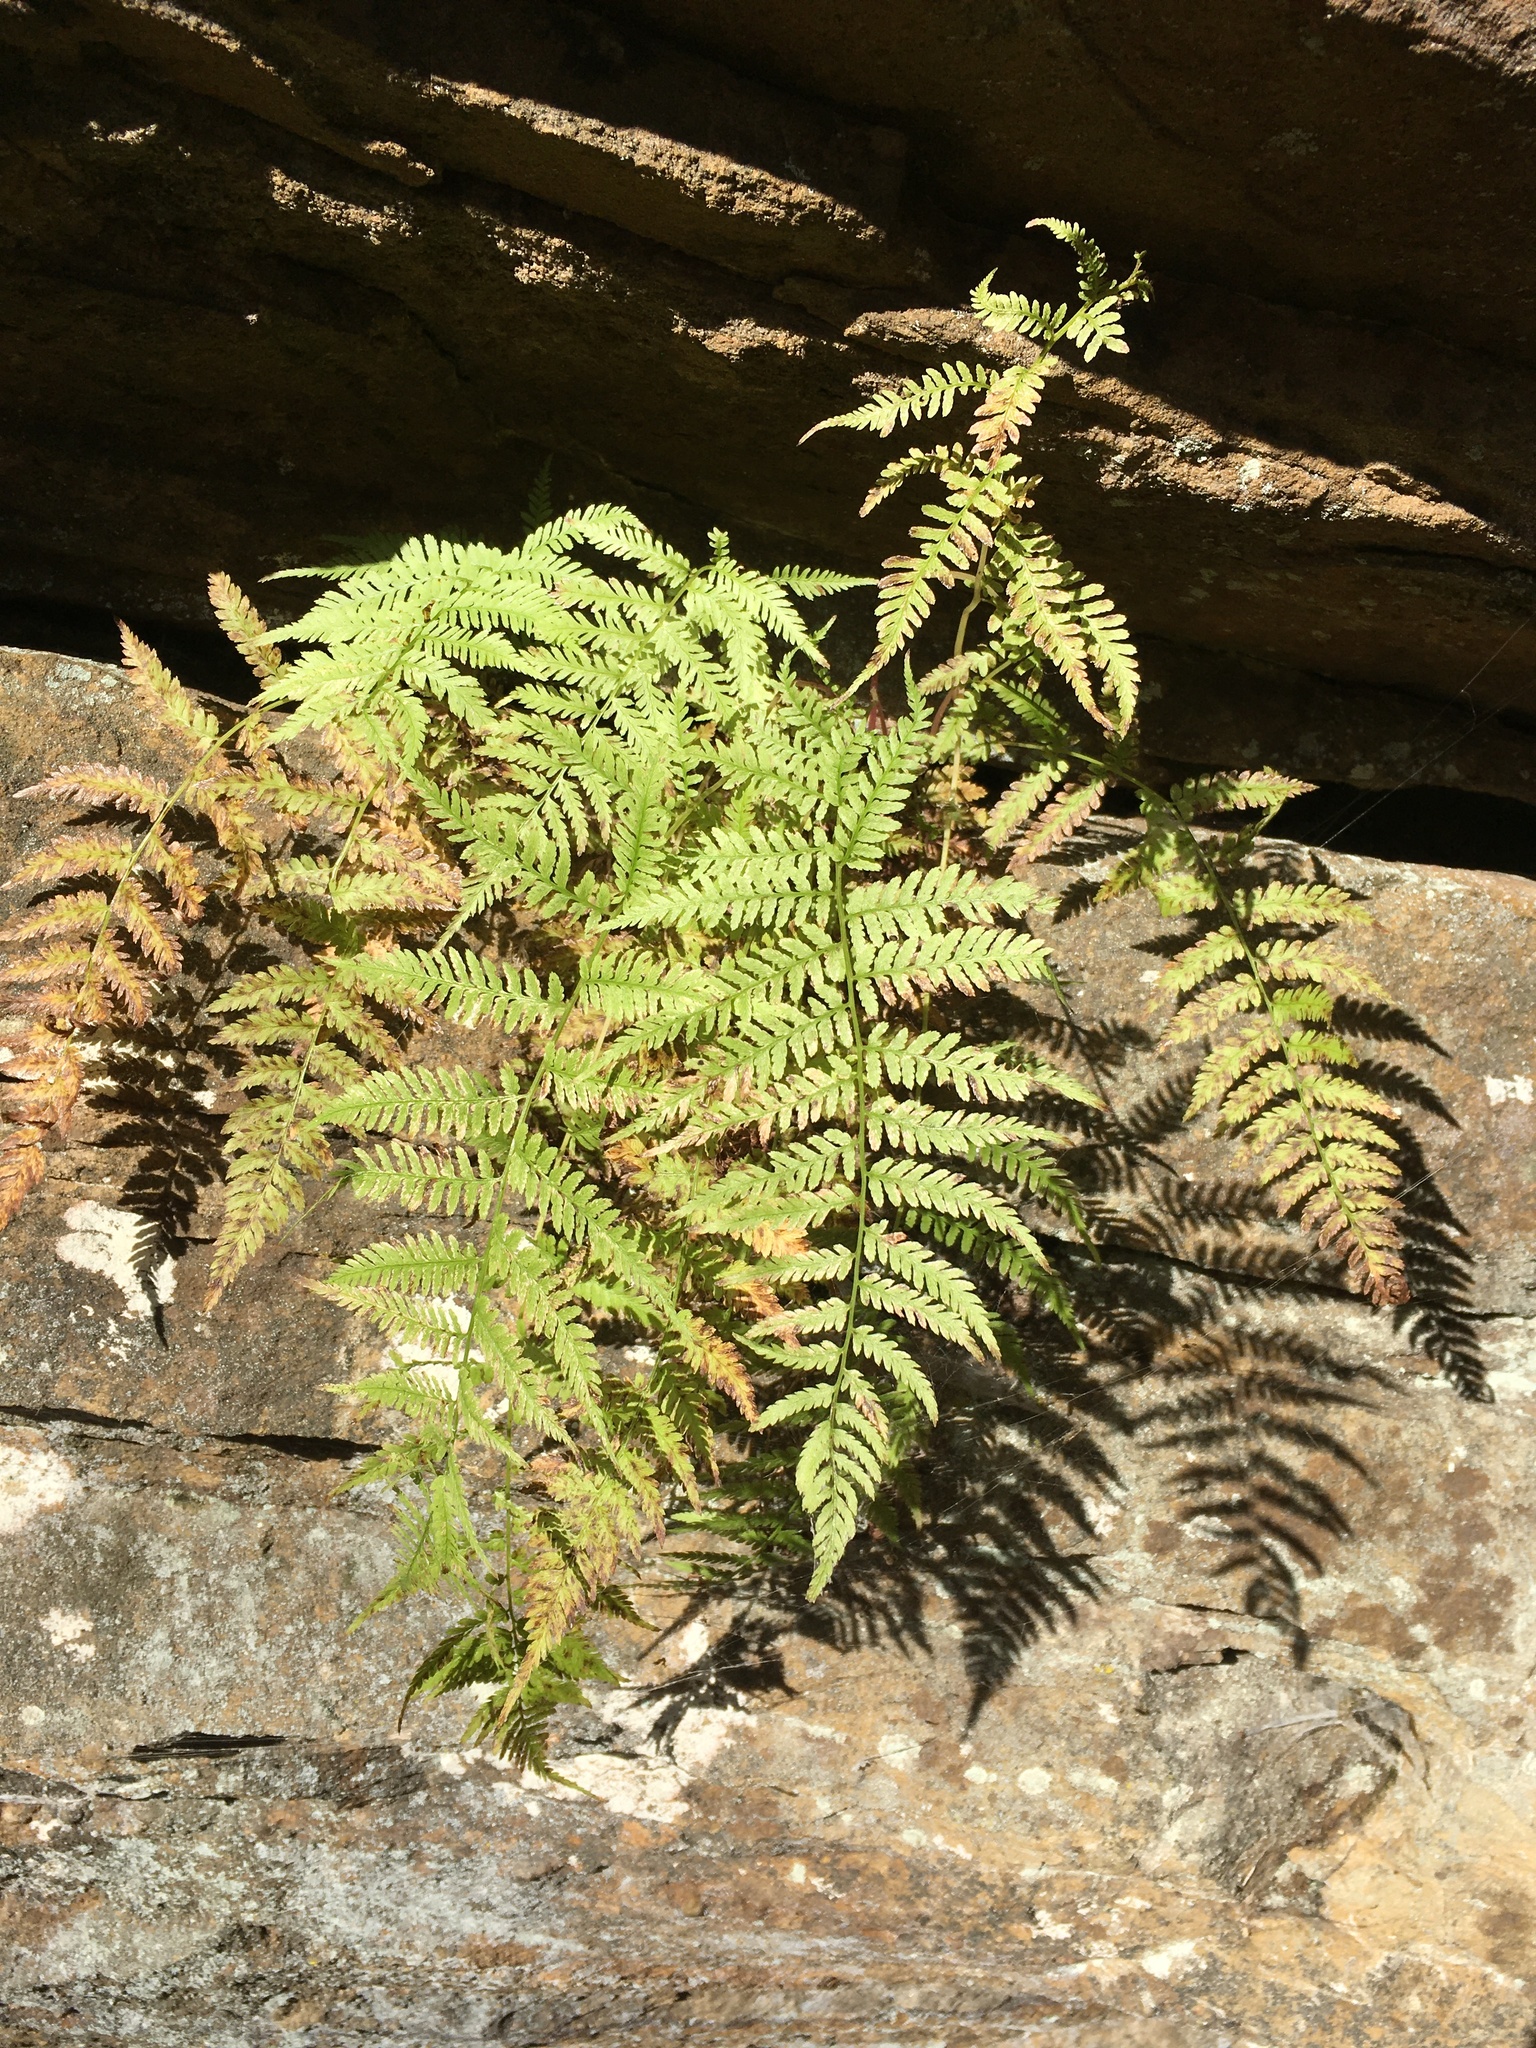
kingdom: Plantae
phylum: Tracheophyta
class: Polypodiopsida
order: Polypodiales
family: Athyriaceae
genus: Athyrium
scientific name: Athyrium asplenioides
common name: Southern lady fern
